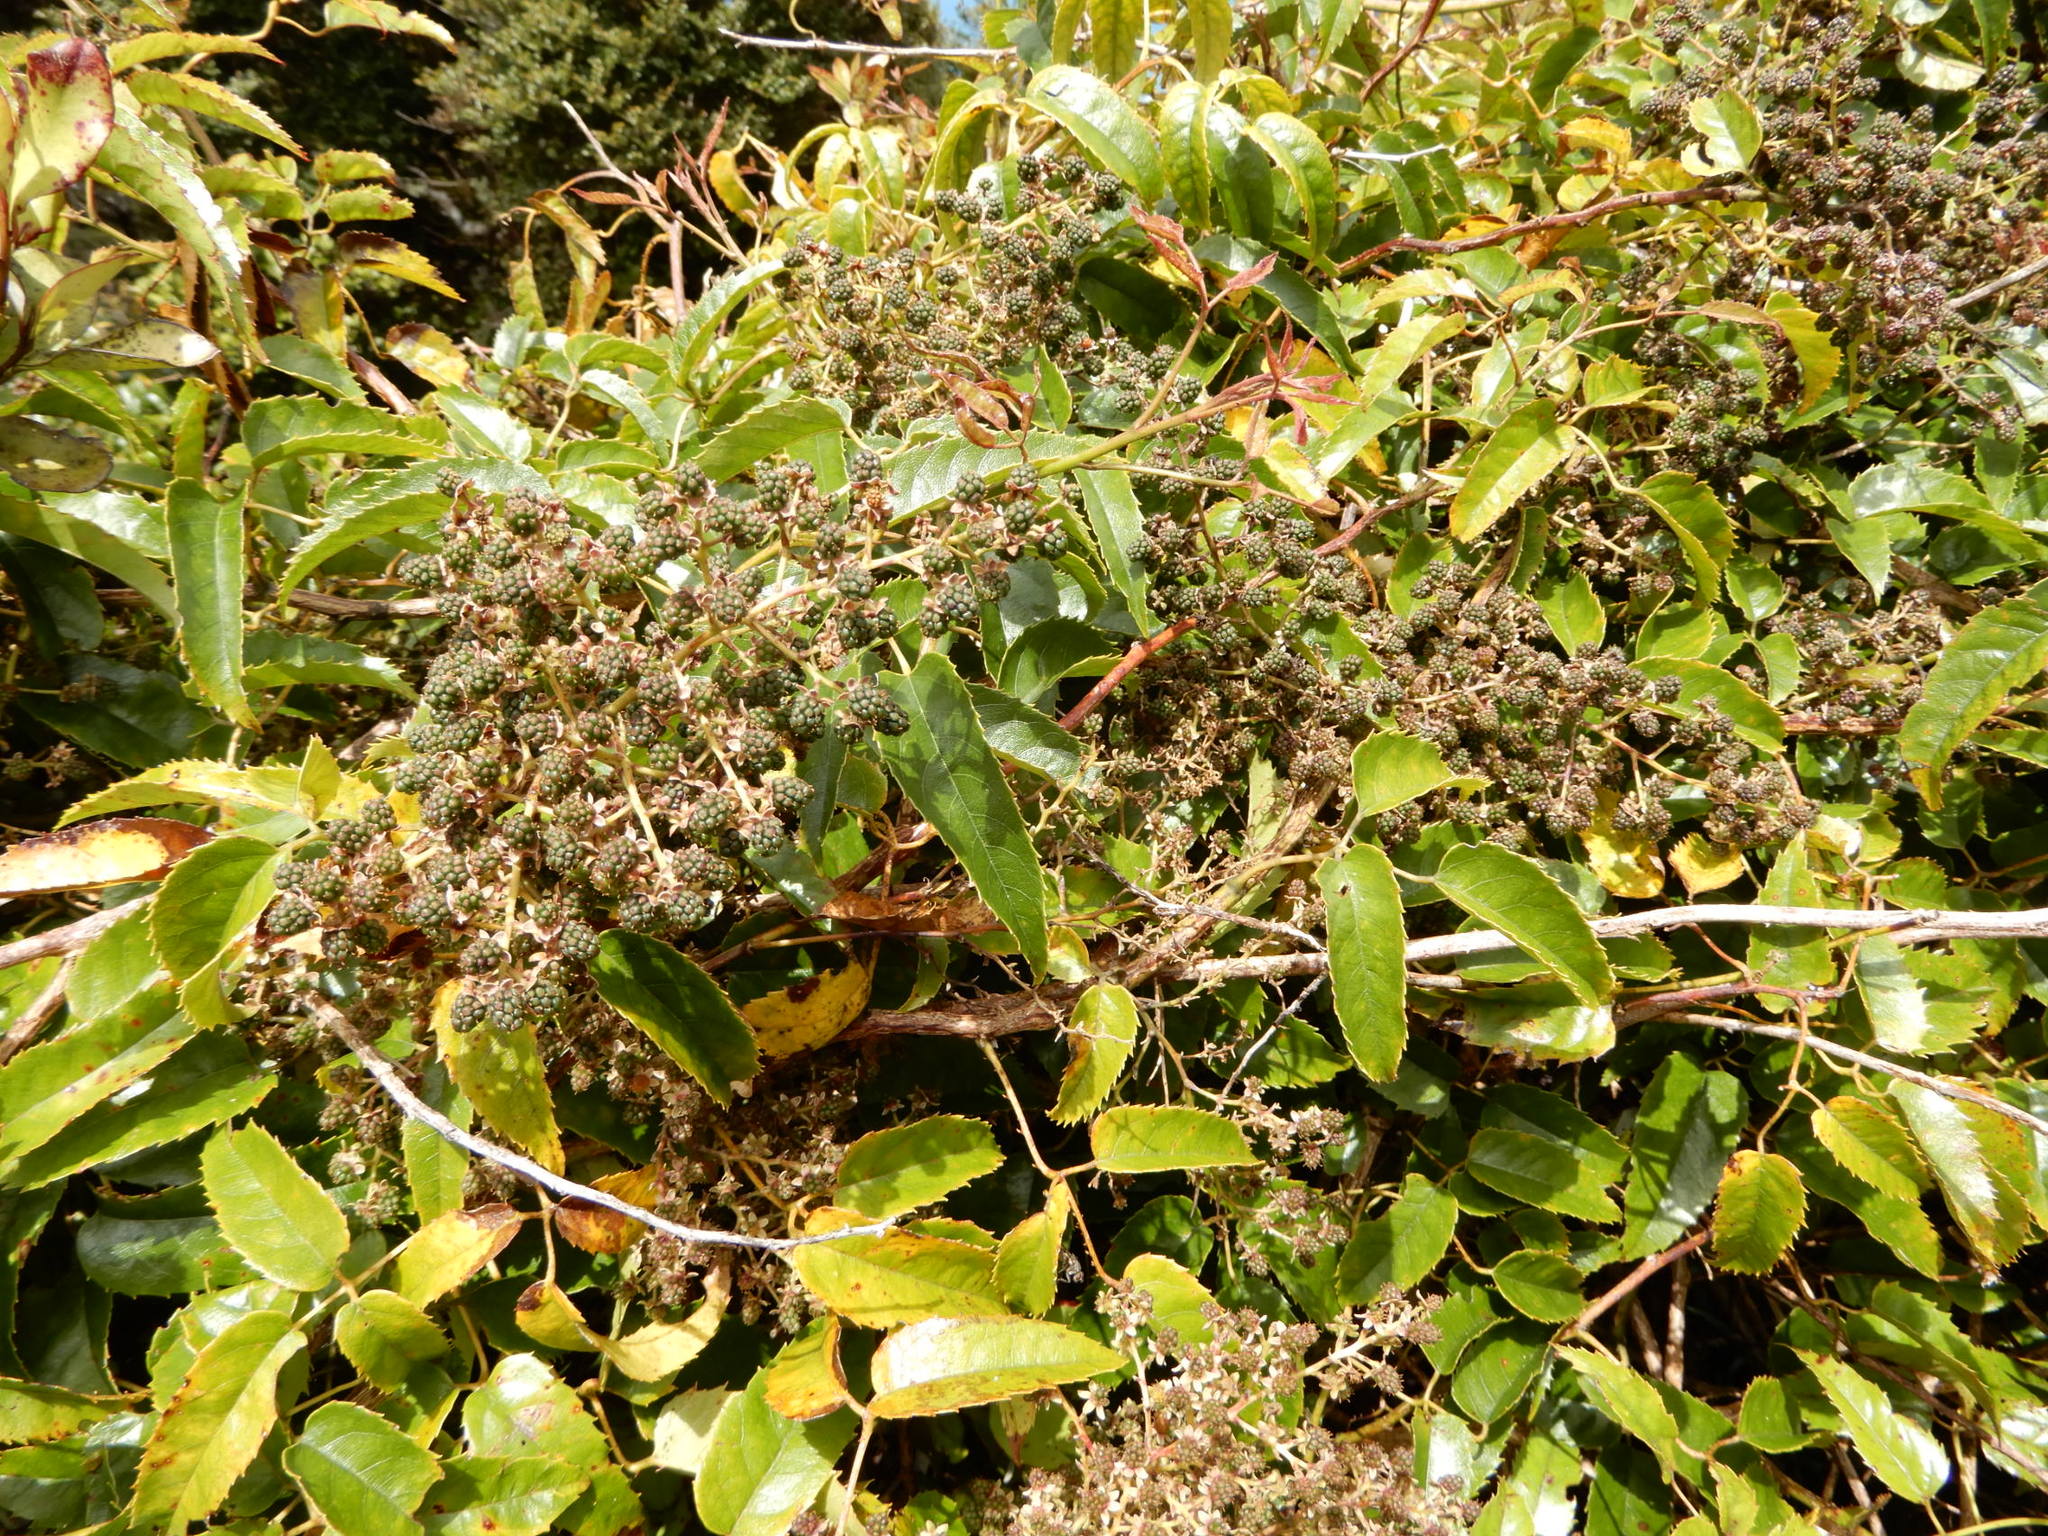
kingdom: Plantae
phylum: Tracheophyta
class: Magnoliopsida
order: Rosales
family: Rosaceae
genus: Rubus
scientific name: Rubus cissoides
